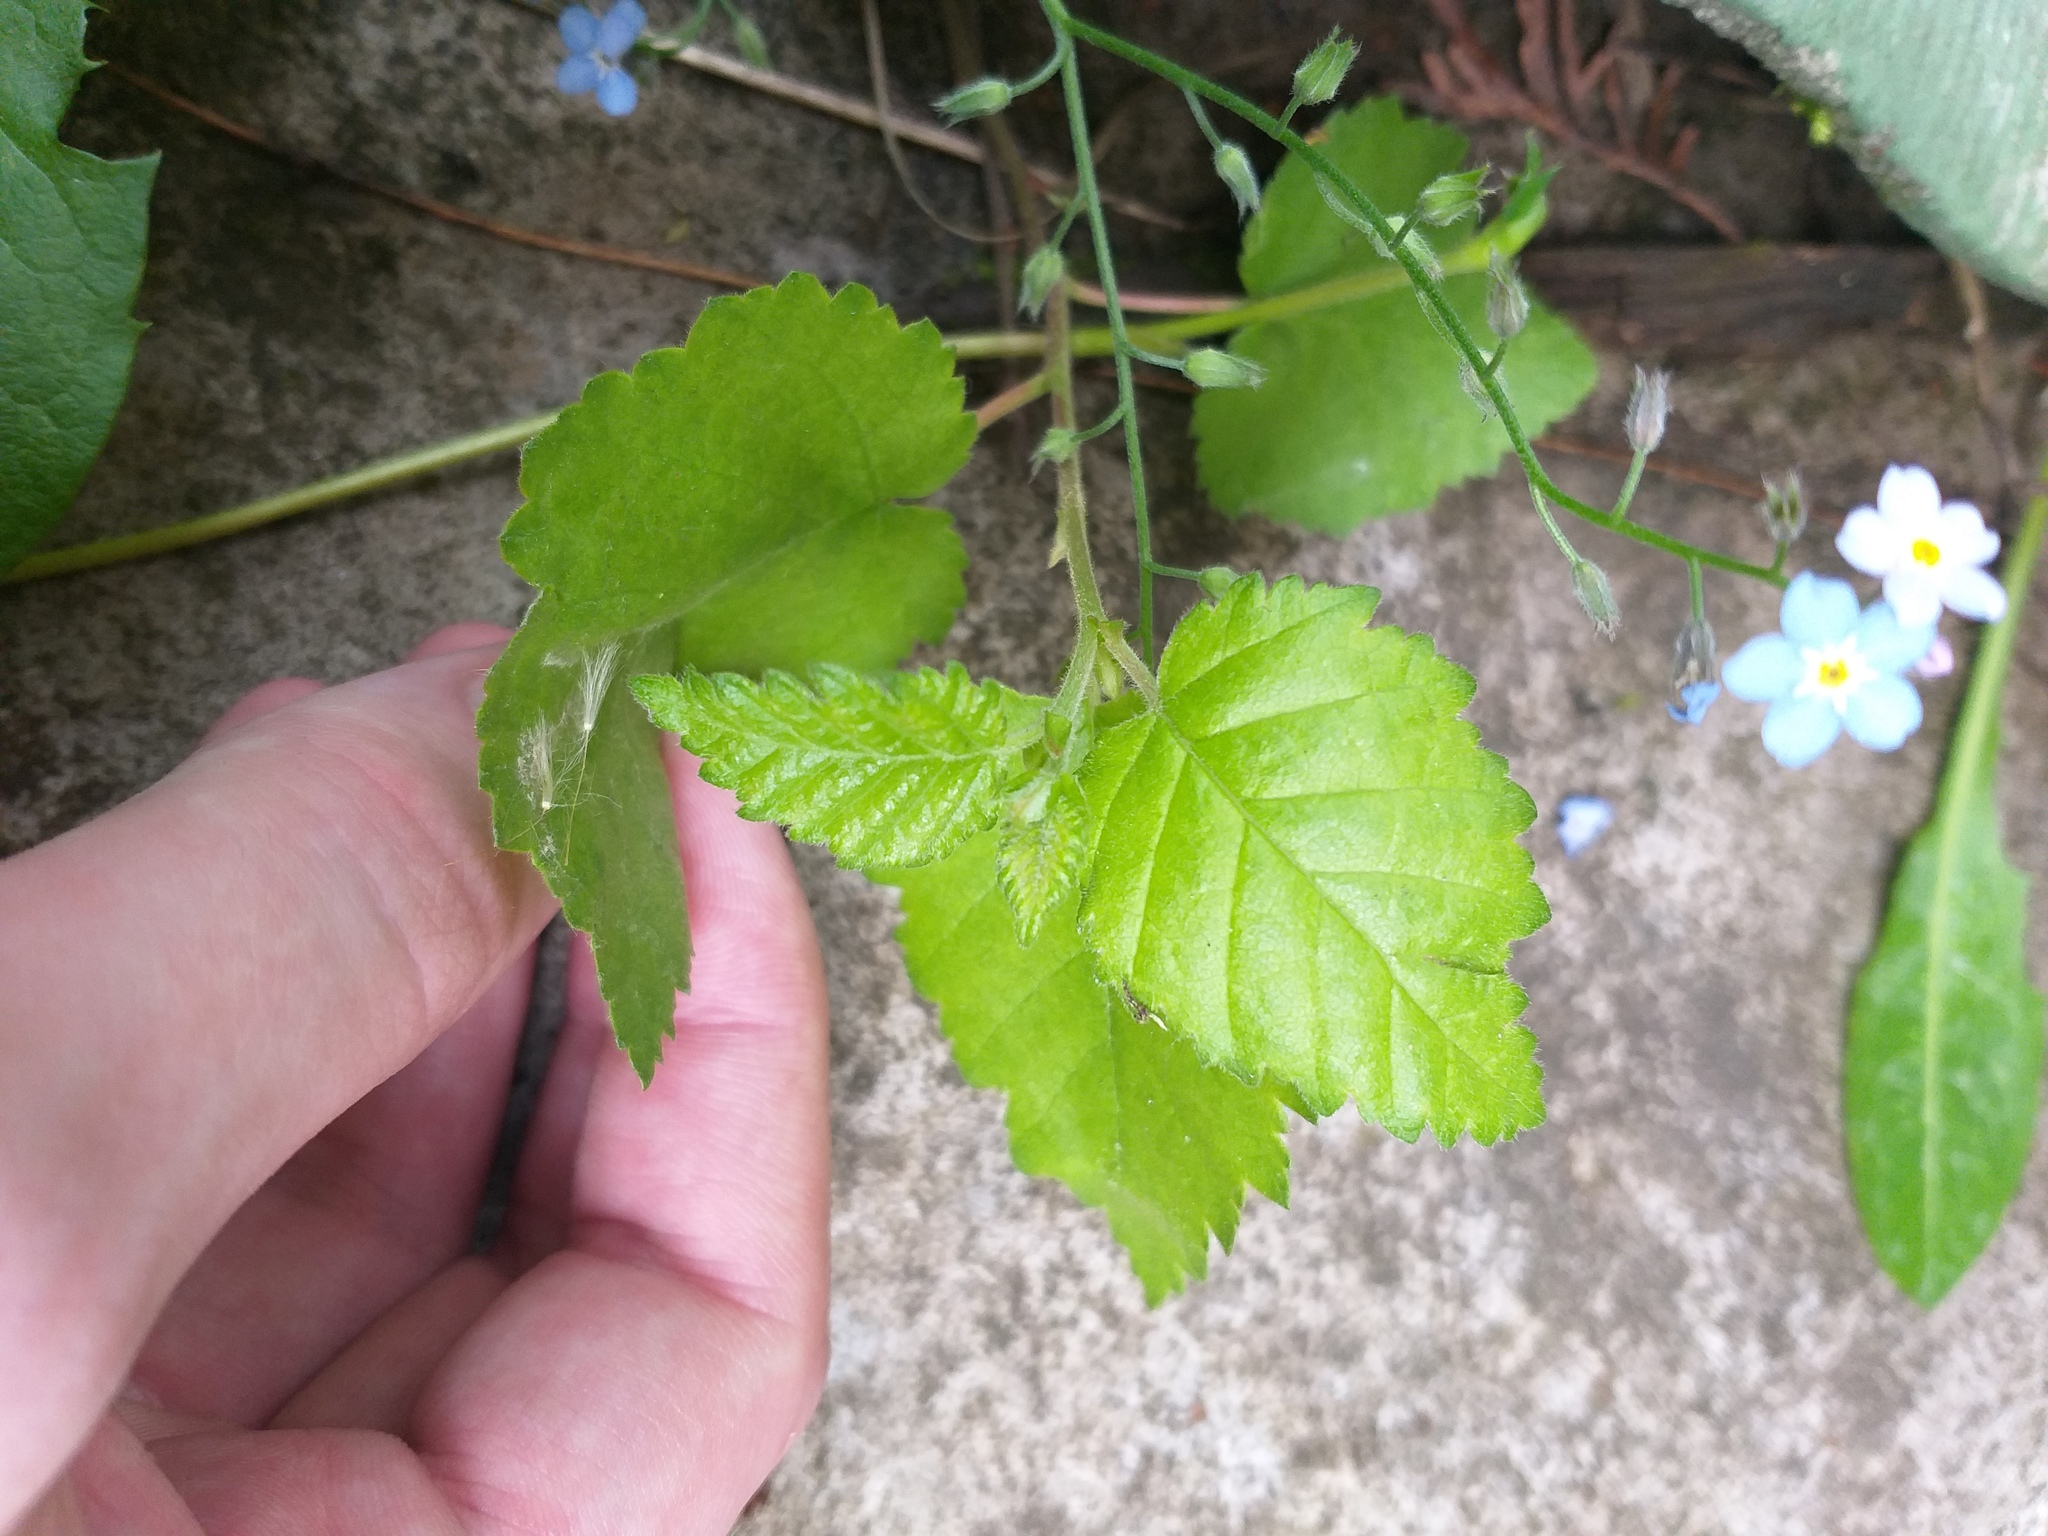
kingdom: Plantae
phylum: Tracheophyta
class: Magnoliopsida
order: Fagales
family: Betulaceae
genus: Betula
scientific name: Betula pubescens
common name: Downy birch
